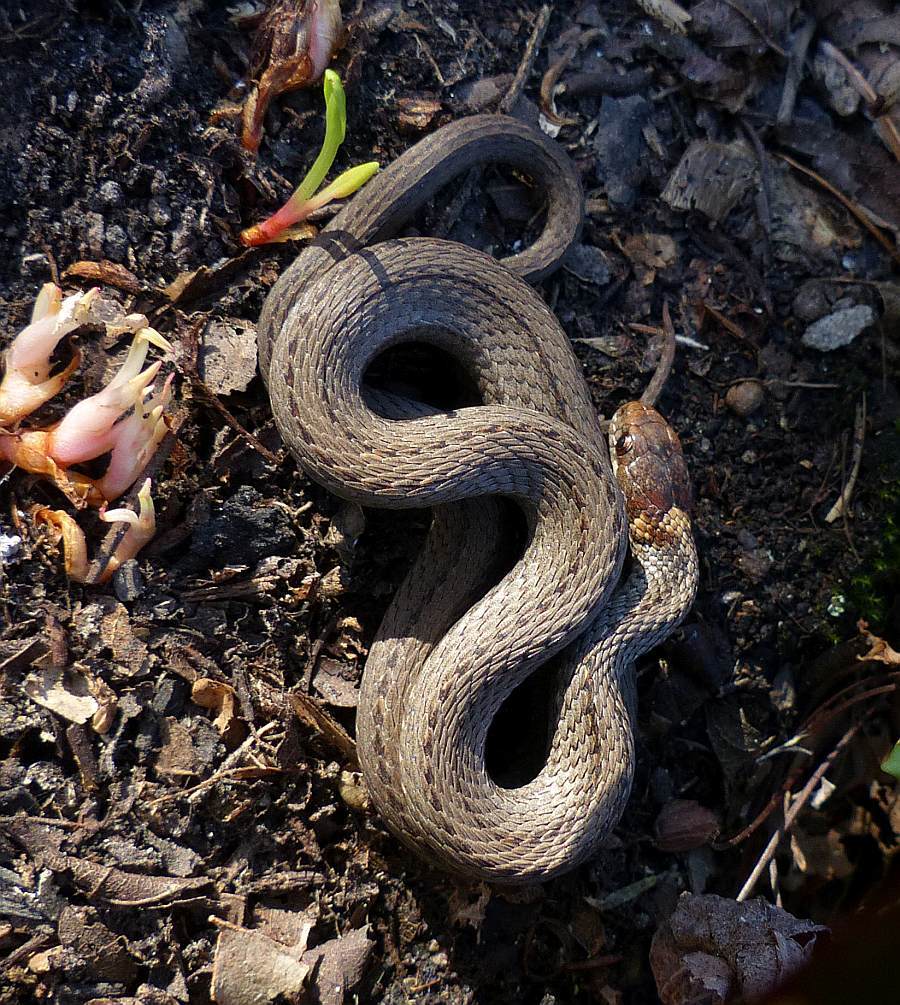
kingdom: Animalia
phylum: Chordata
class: Squamata
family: Colubridae
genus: Storeria
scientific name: Storeria occipitomaculata
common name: Redbelly snake
